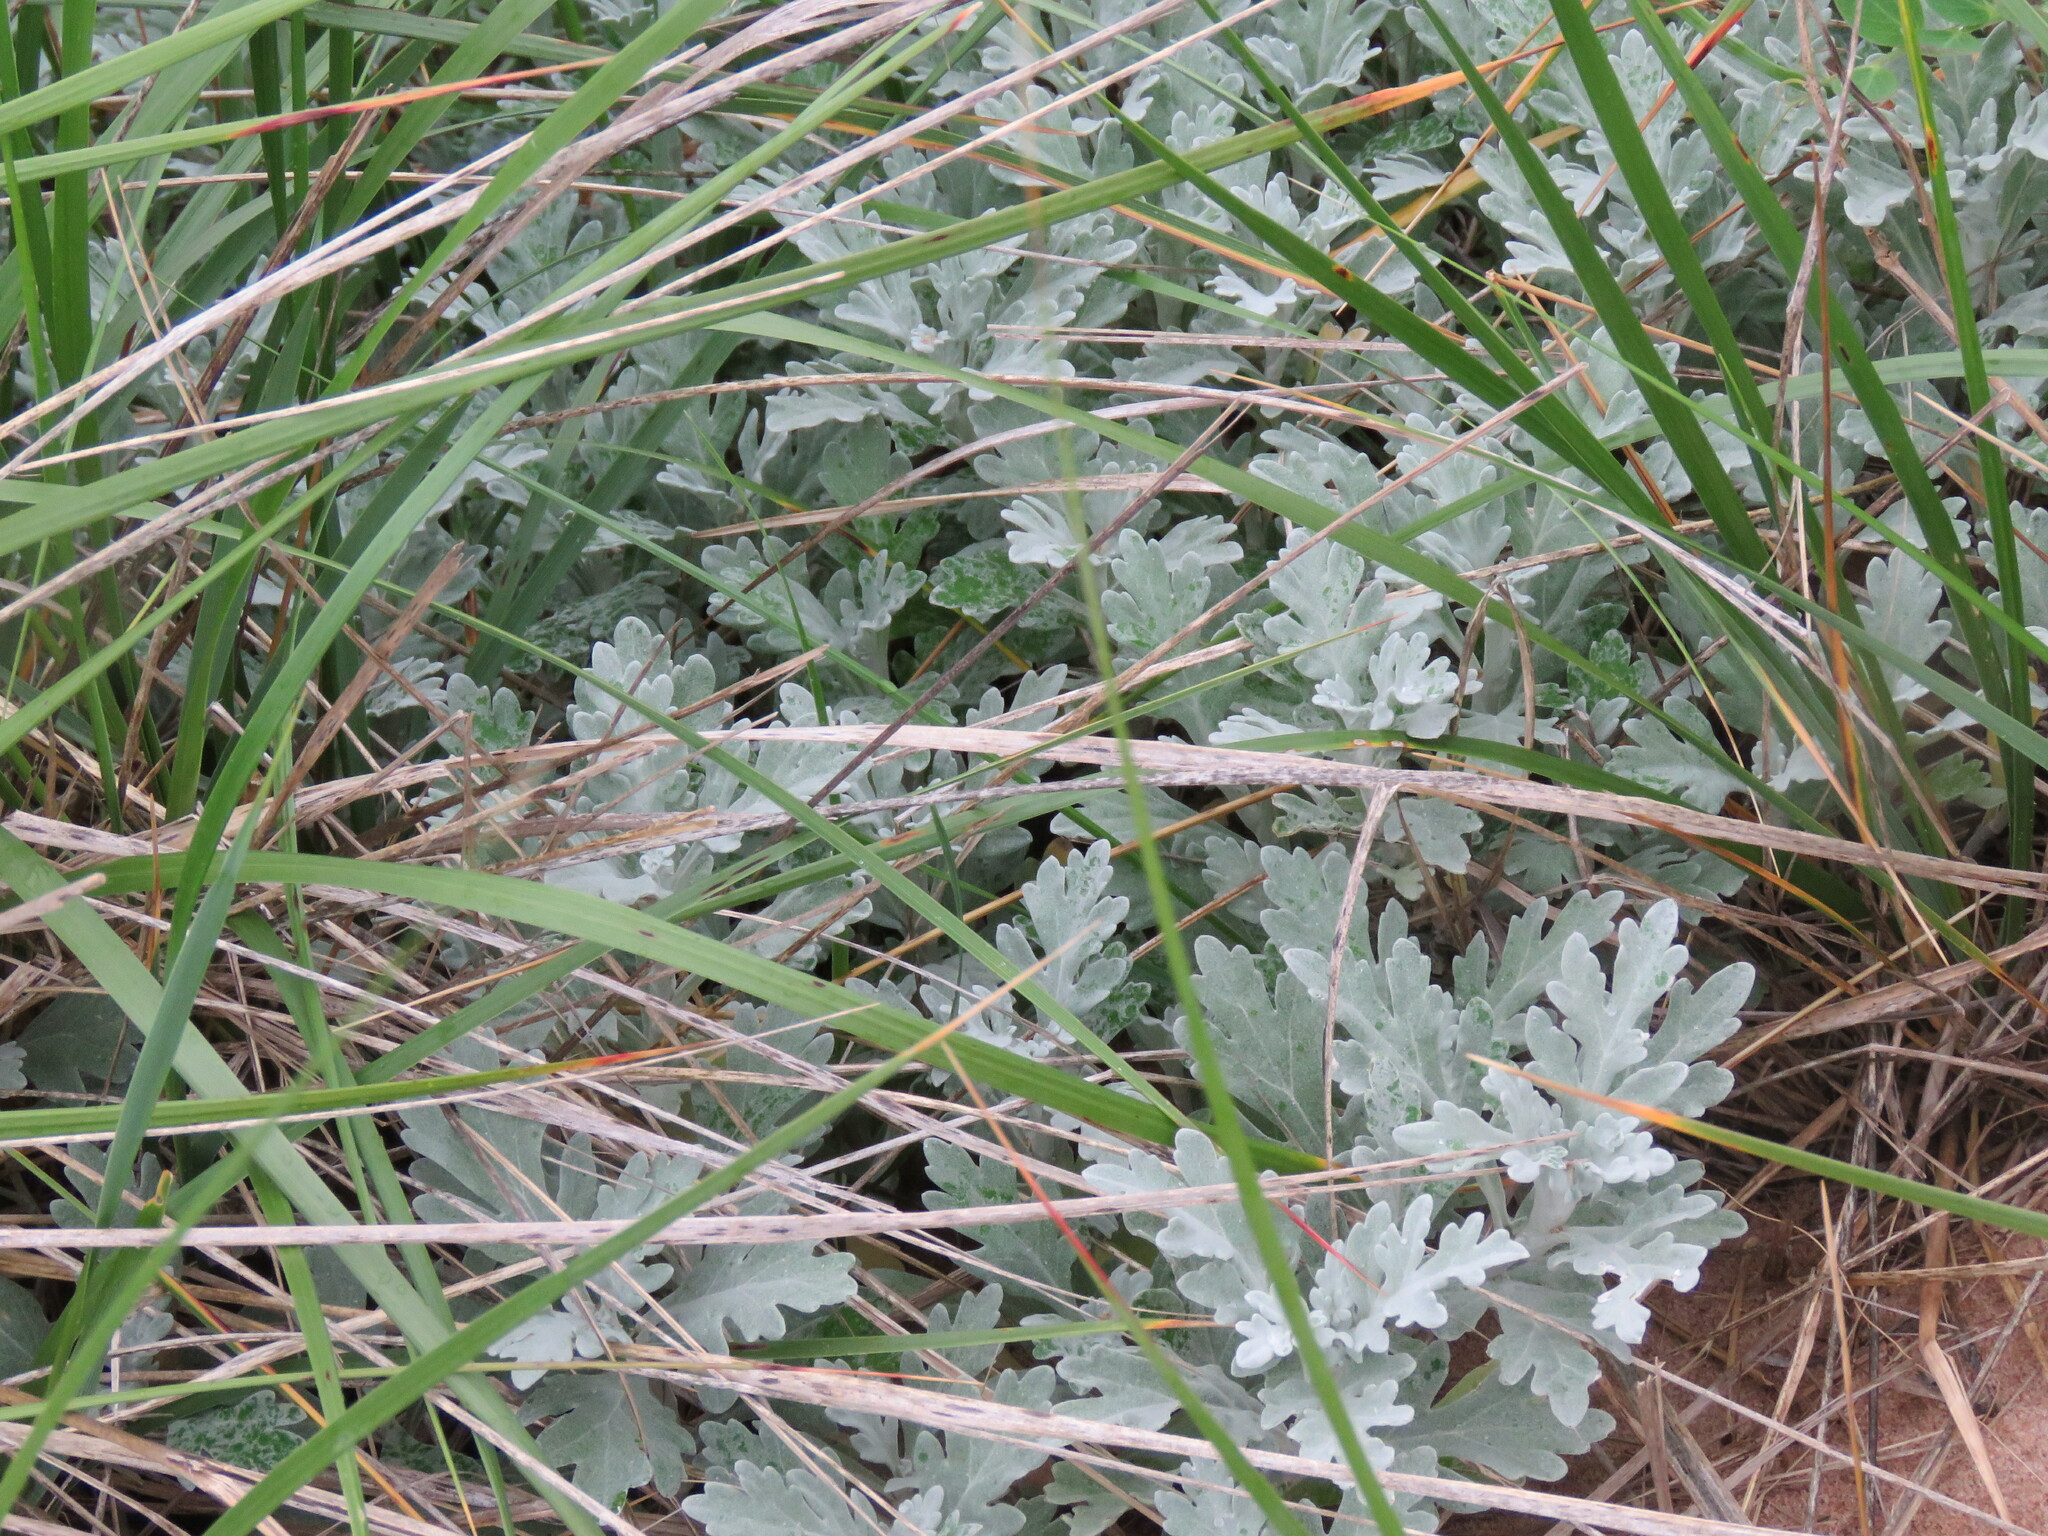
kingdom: Plantae
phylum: Tracheophyta
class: Magnoliopsida
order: Asterales
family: Asteraceae
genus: Artemisia
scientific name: Artemisia stelleriana
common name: Beach wormwood
